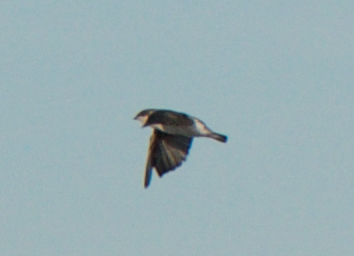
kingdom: Animalia
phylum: Chordata
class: Aves
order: Passeriformes
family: Hirundinidae
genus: Tachycineta
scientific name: Tachycineta bicolor
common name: Tree swallow
